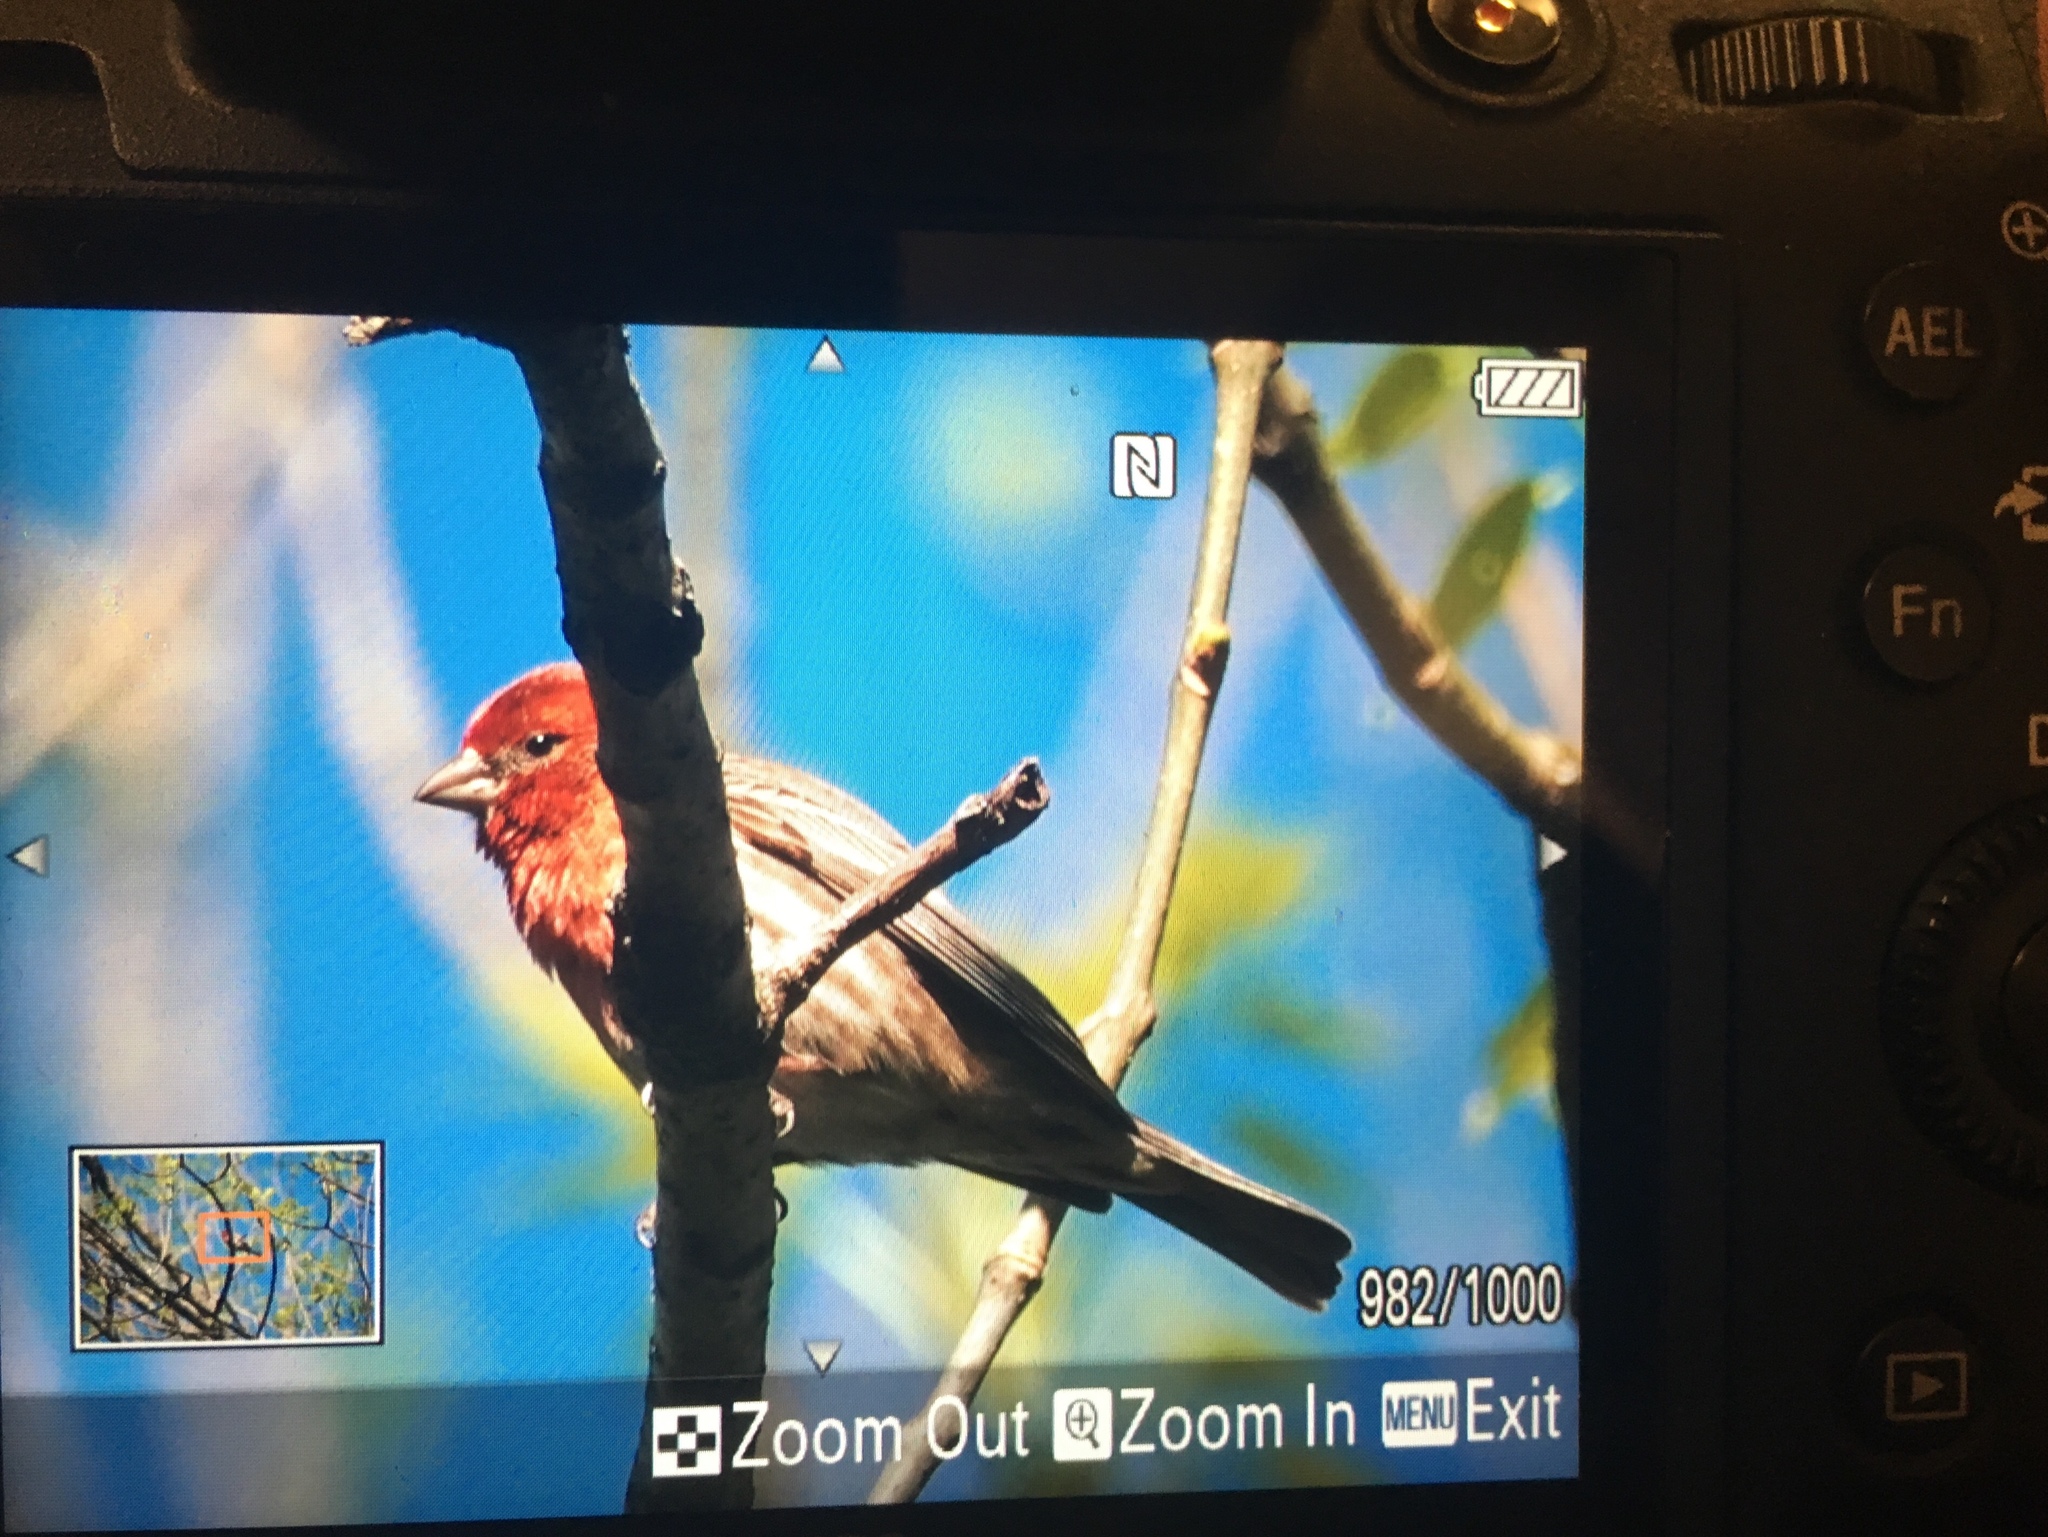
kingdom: Animalia
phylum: Chordata
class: Aves
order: Passeriformes
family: Fringillidae
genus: Haemorhous
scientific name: Haemorhous mexicanus
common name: House finch
